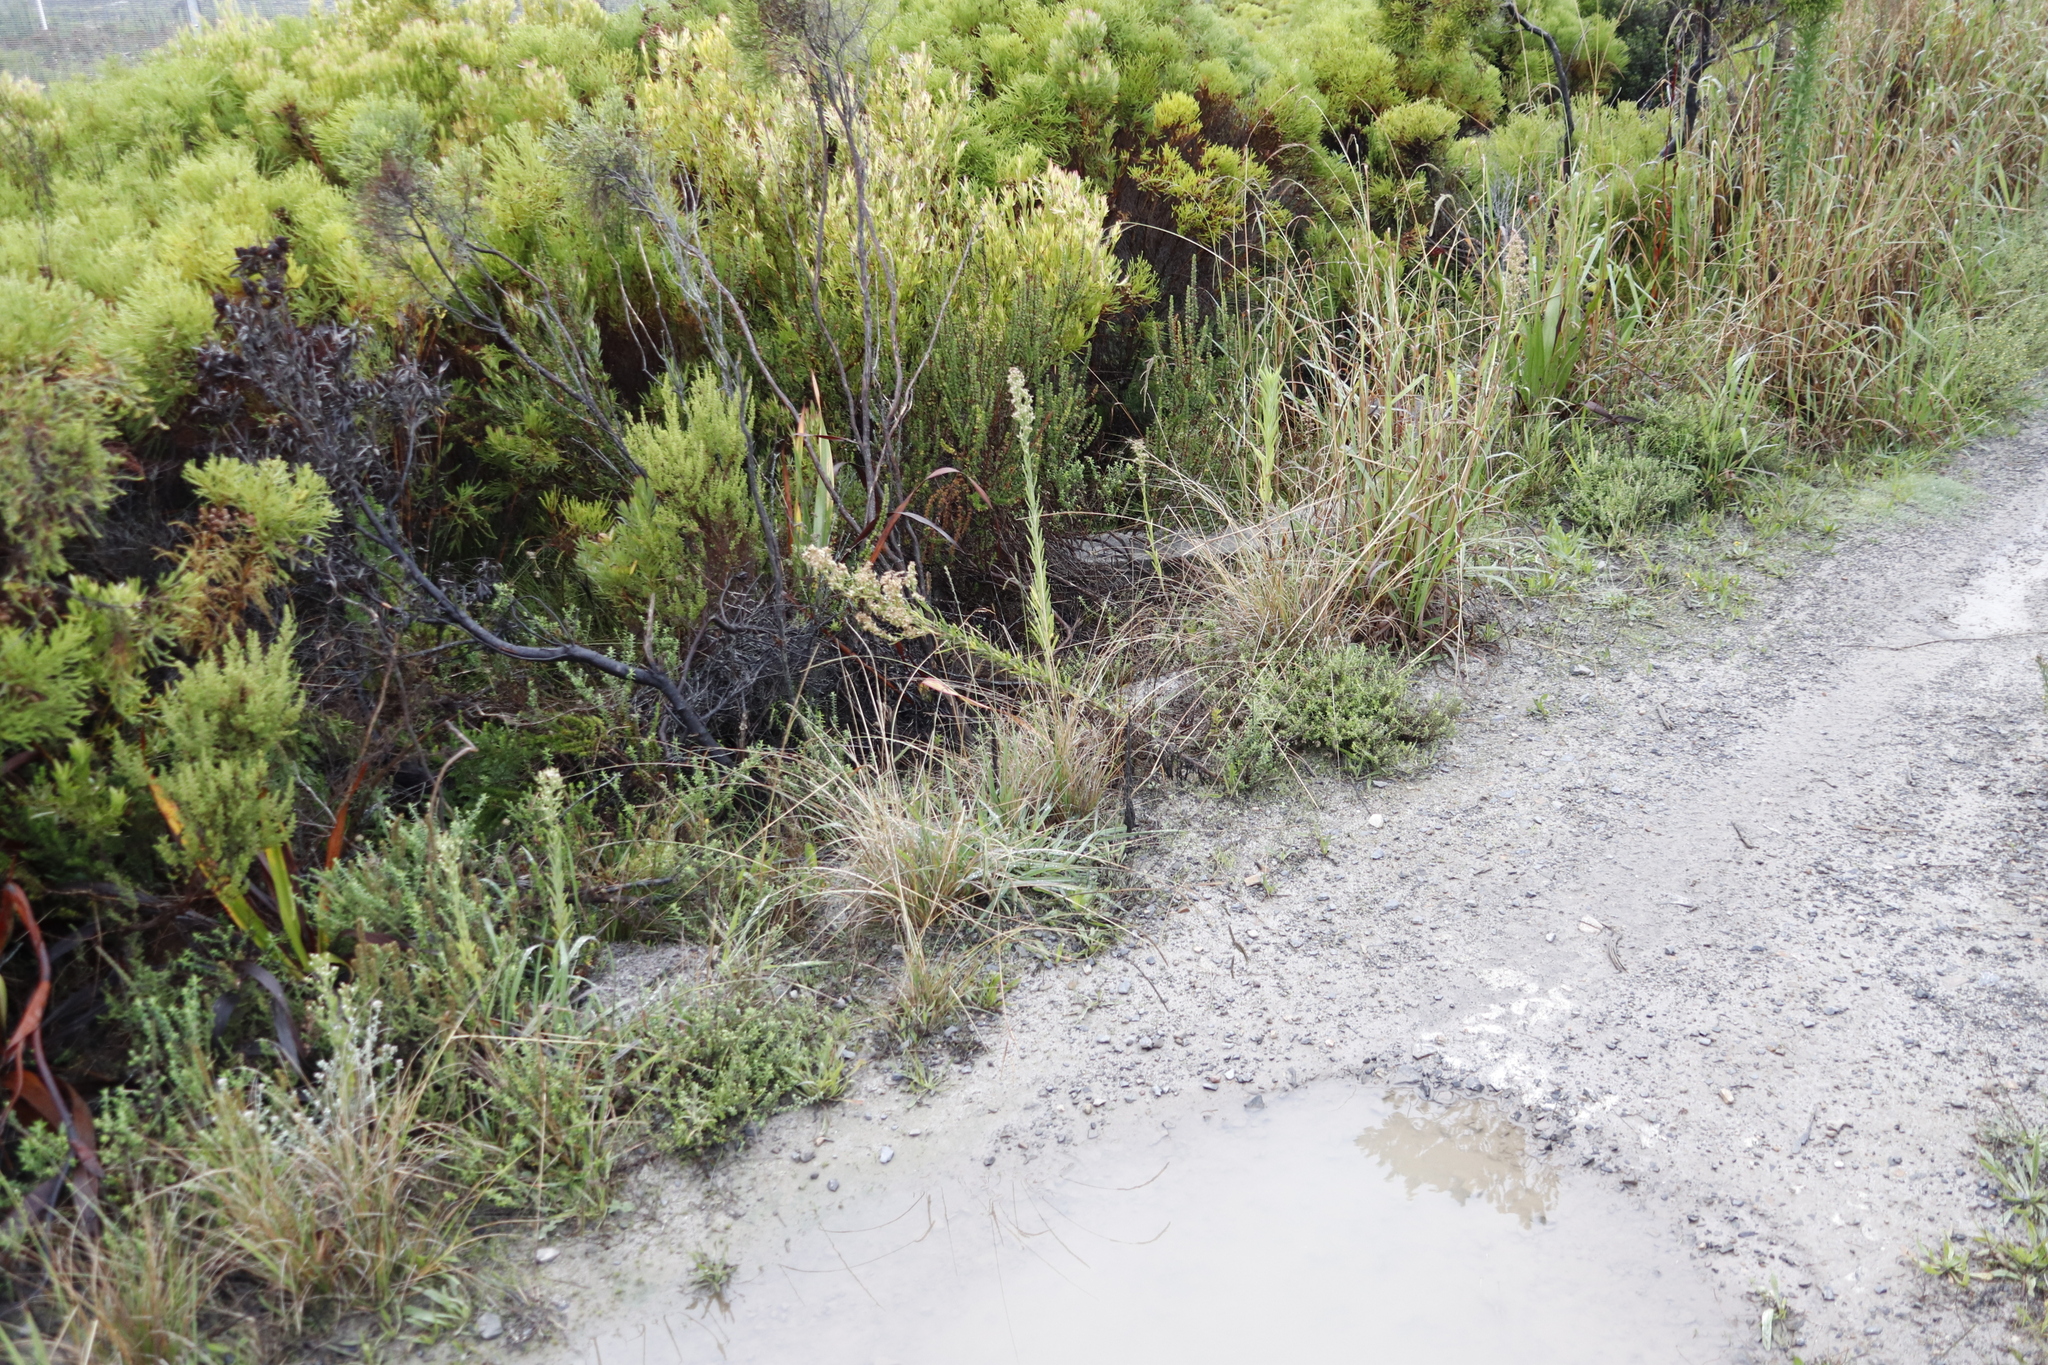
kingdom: Plantae
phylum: Tracheophyta
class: Magnoliopsida
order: Asterales
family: Asteraceae
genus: Erigeron
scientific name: Erigeron sumatrensis
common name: Daisy
